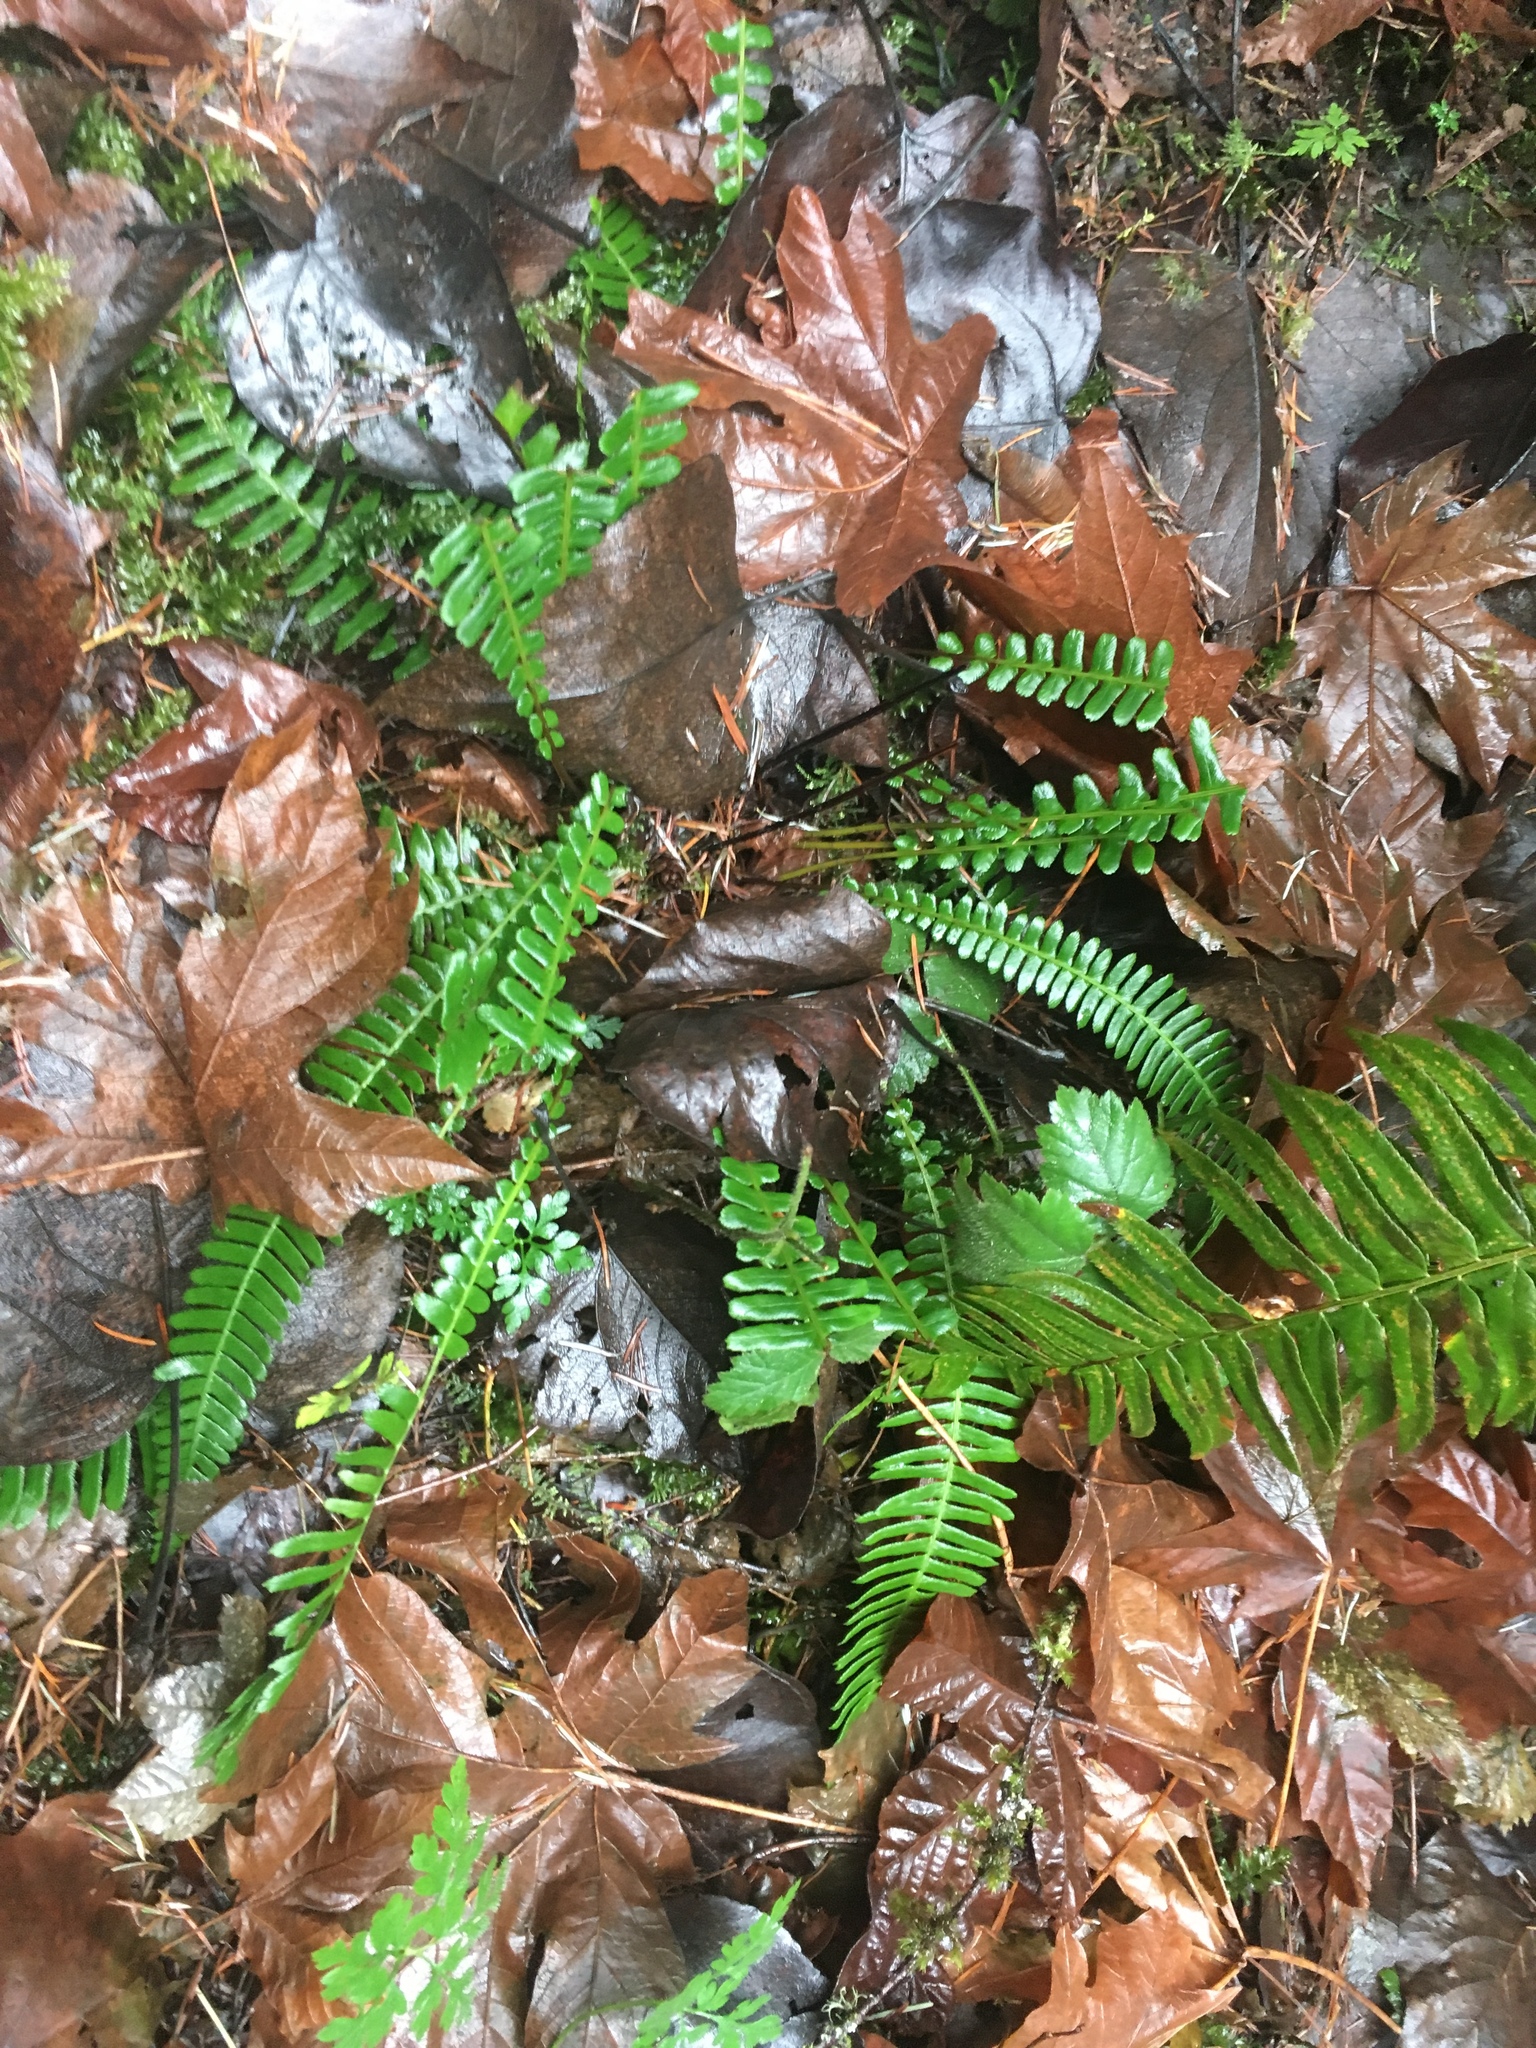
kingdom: Plantae
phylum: Tracheophyta
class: Polypodiopsida
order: Polypodiales
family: Blechnaceae
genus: Struthiopteris
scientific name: Struthiopteris spicant
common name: Deer fern
